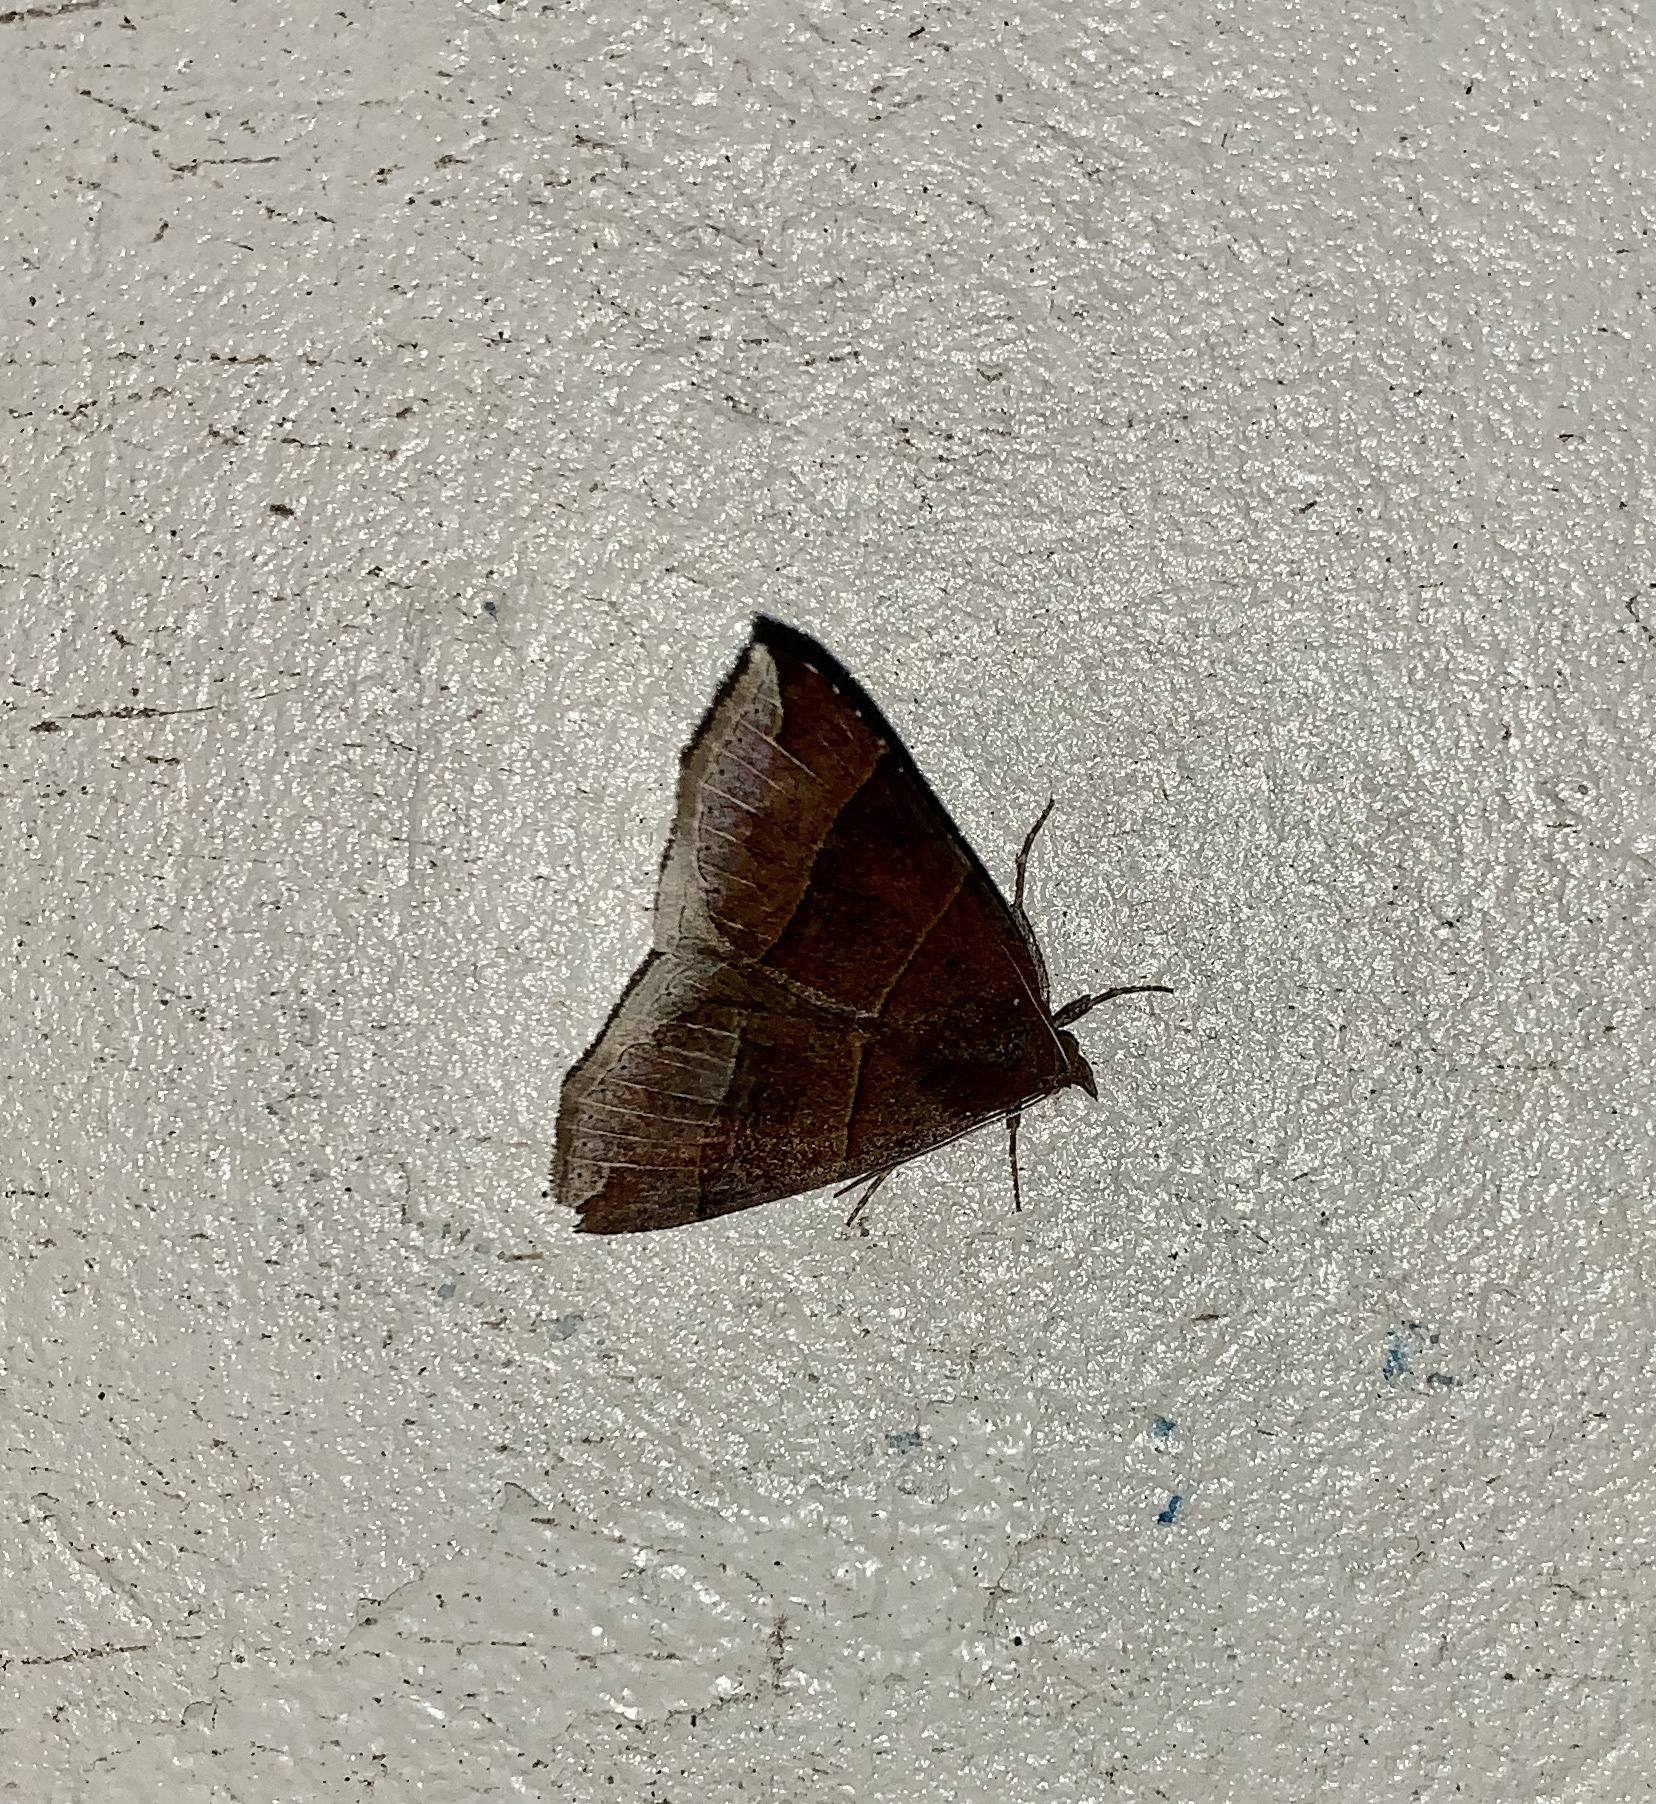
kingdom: Animalia
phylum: Arthropoda
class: Insecta
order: Lepidoptera
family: Erebidae
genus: Parallelia
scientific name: Parallelia bistriaris
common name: Maple looper moth
